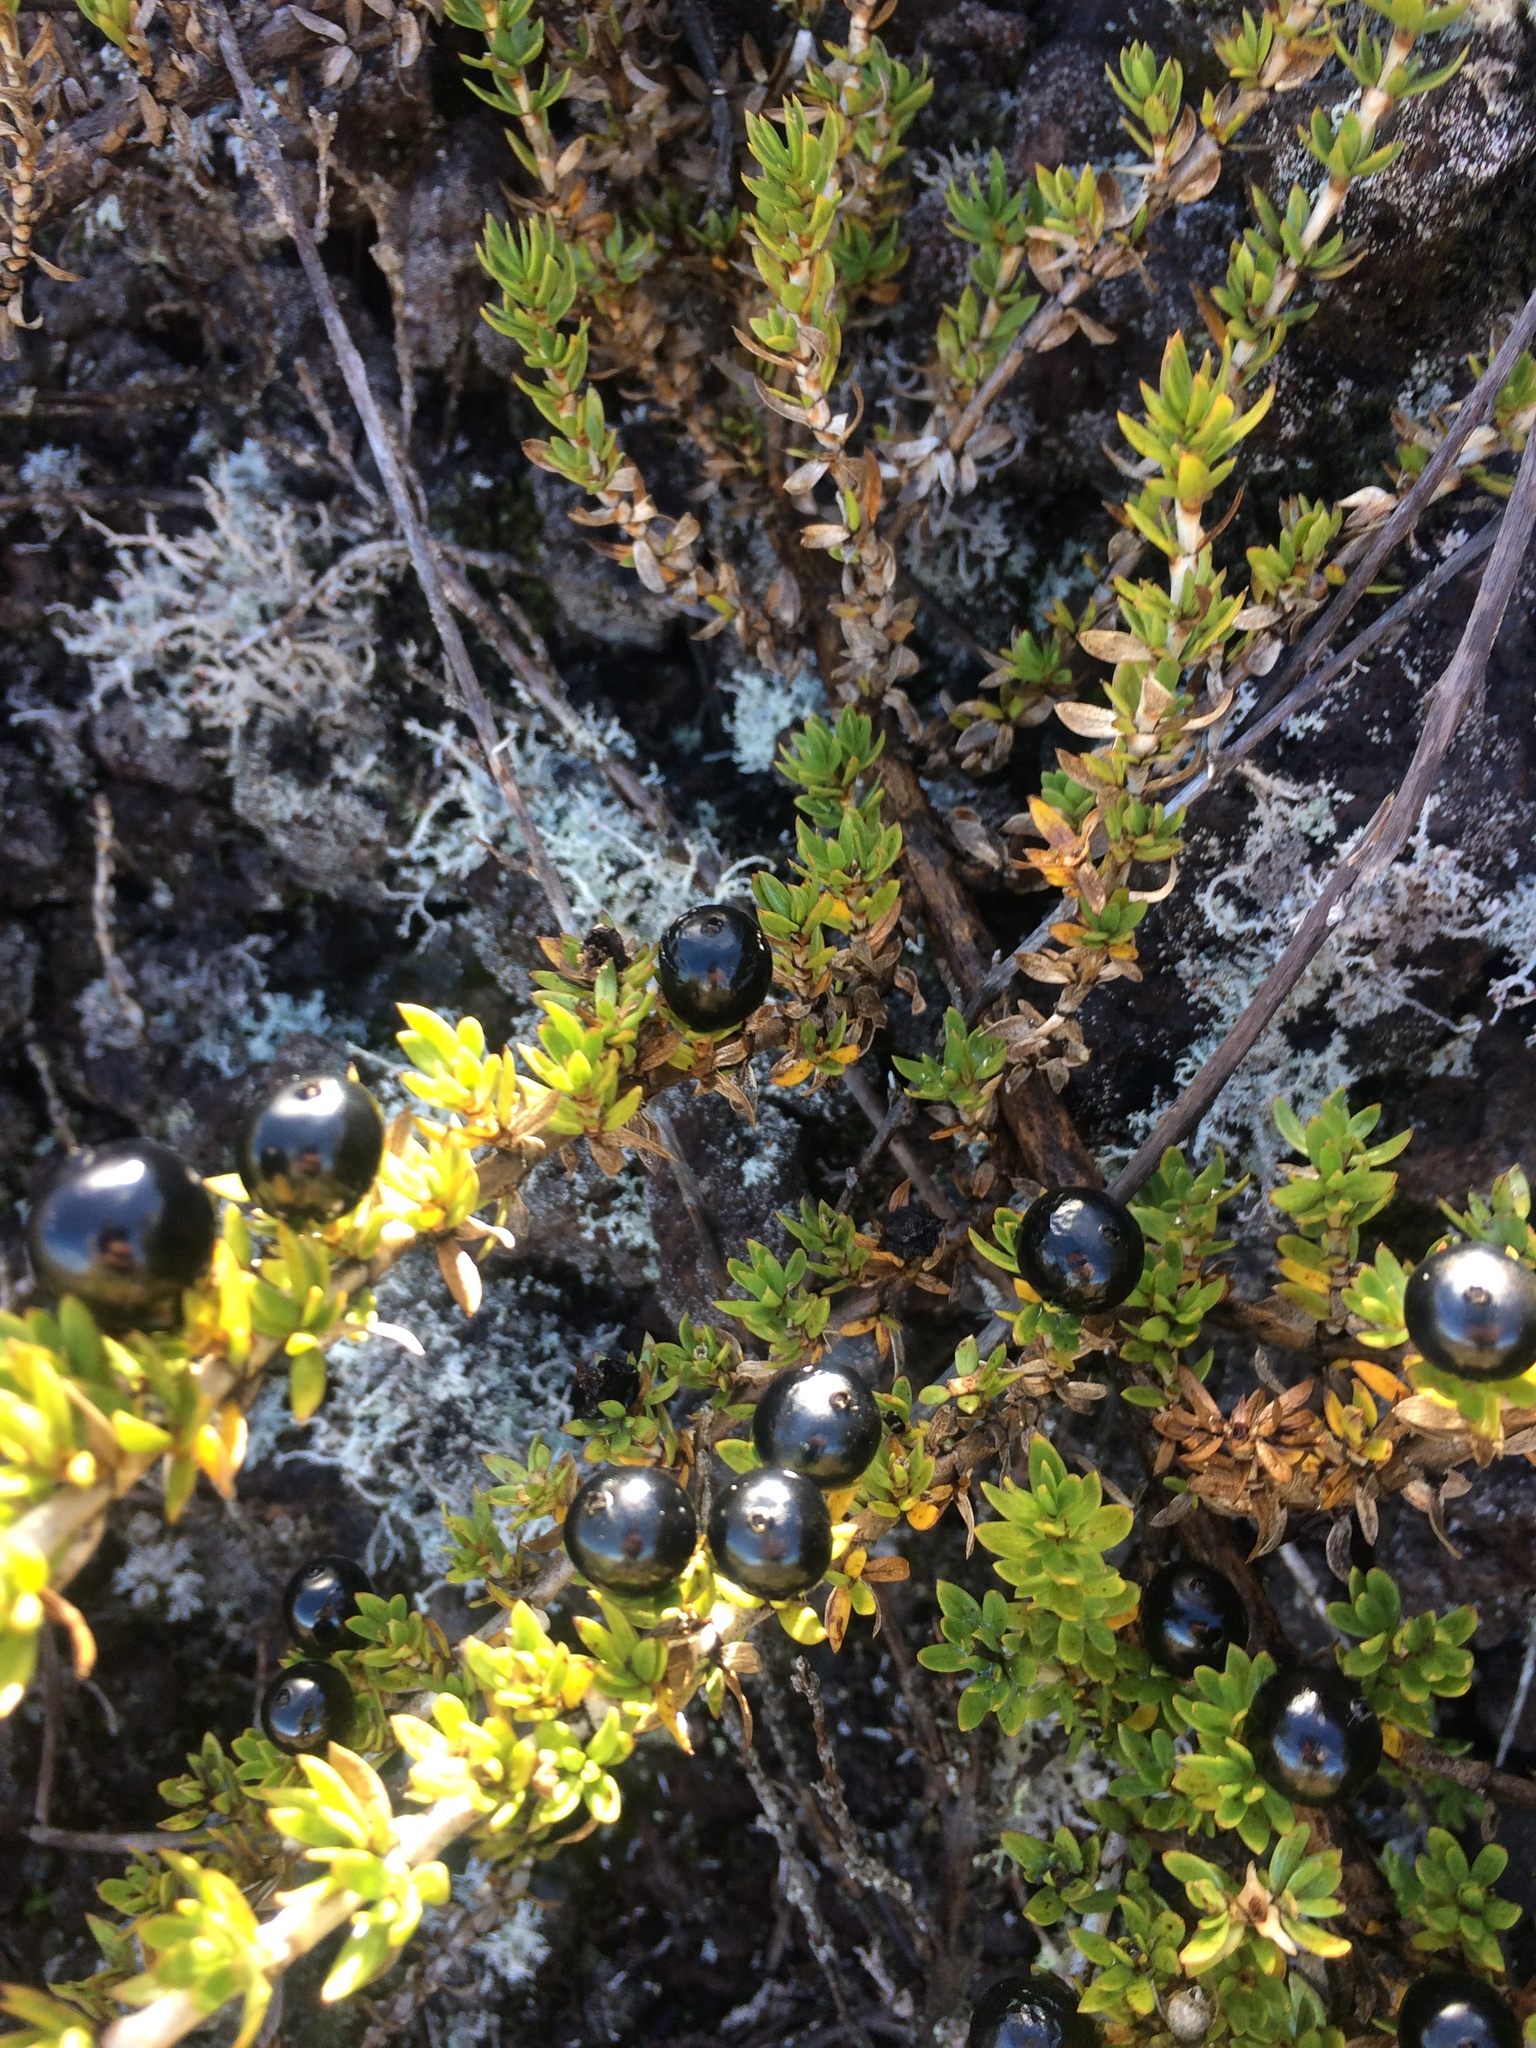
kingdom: Plantae
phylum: Tracheophyta
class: Magnoliopsida
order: Gentianales
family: Rubiaceae
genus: Coprosma
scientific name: Coprosma ernodeoides
